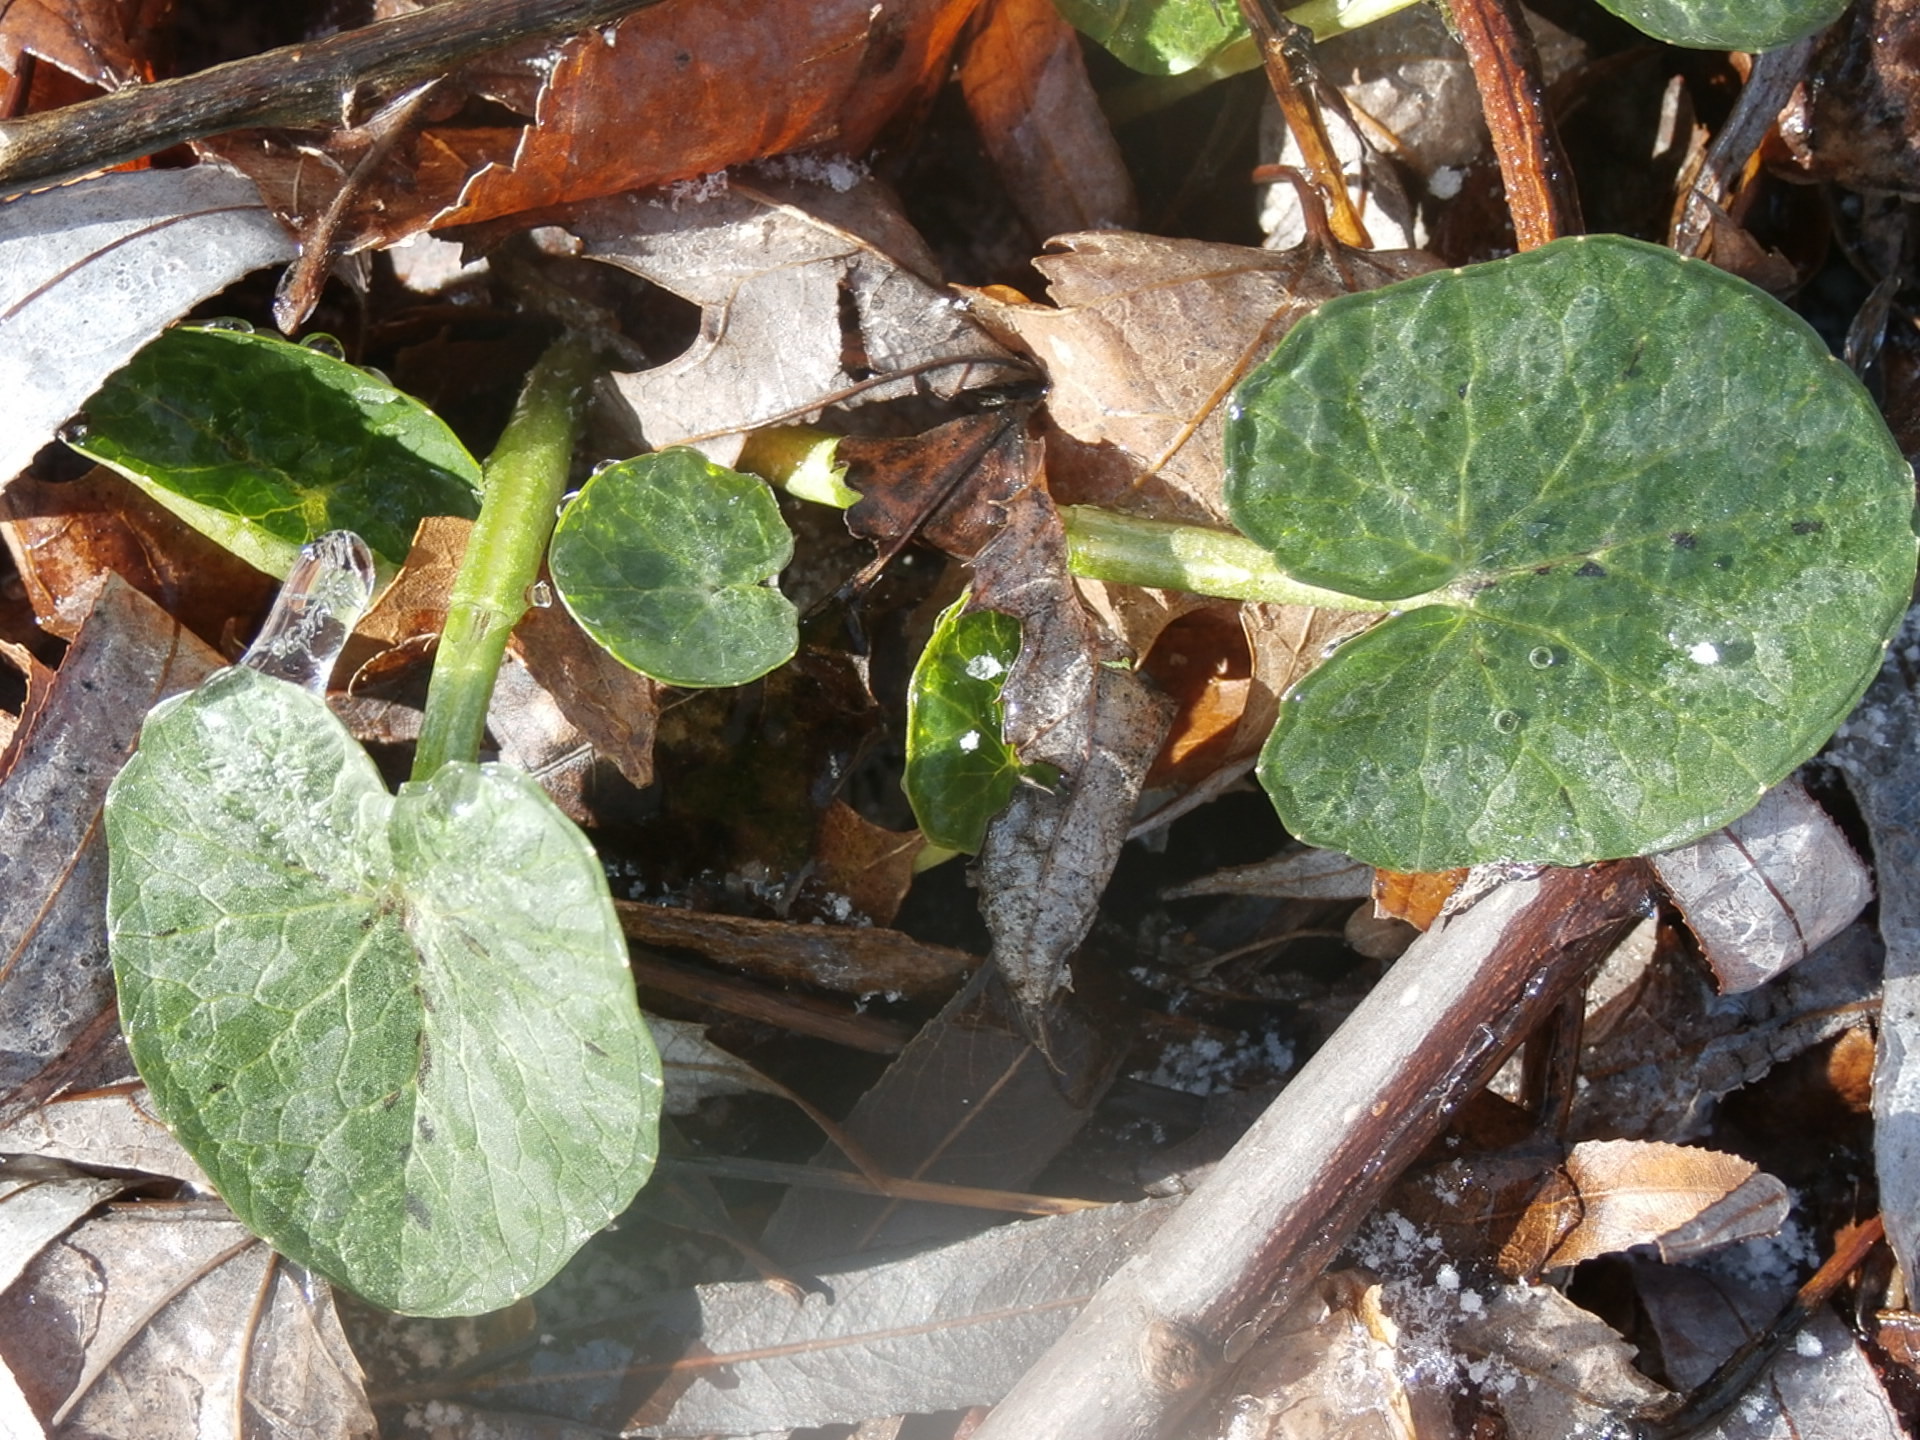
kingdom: Plantae
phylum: Tracheophyta
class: Magnoliopsida
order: Ranunculales
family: Ranunculaceae
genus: Ficaria
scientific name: Ficaria verna
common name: Lesser celandine
